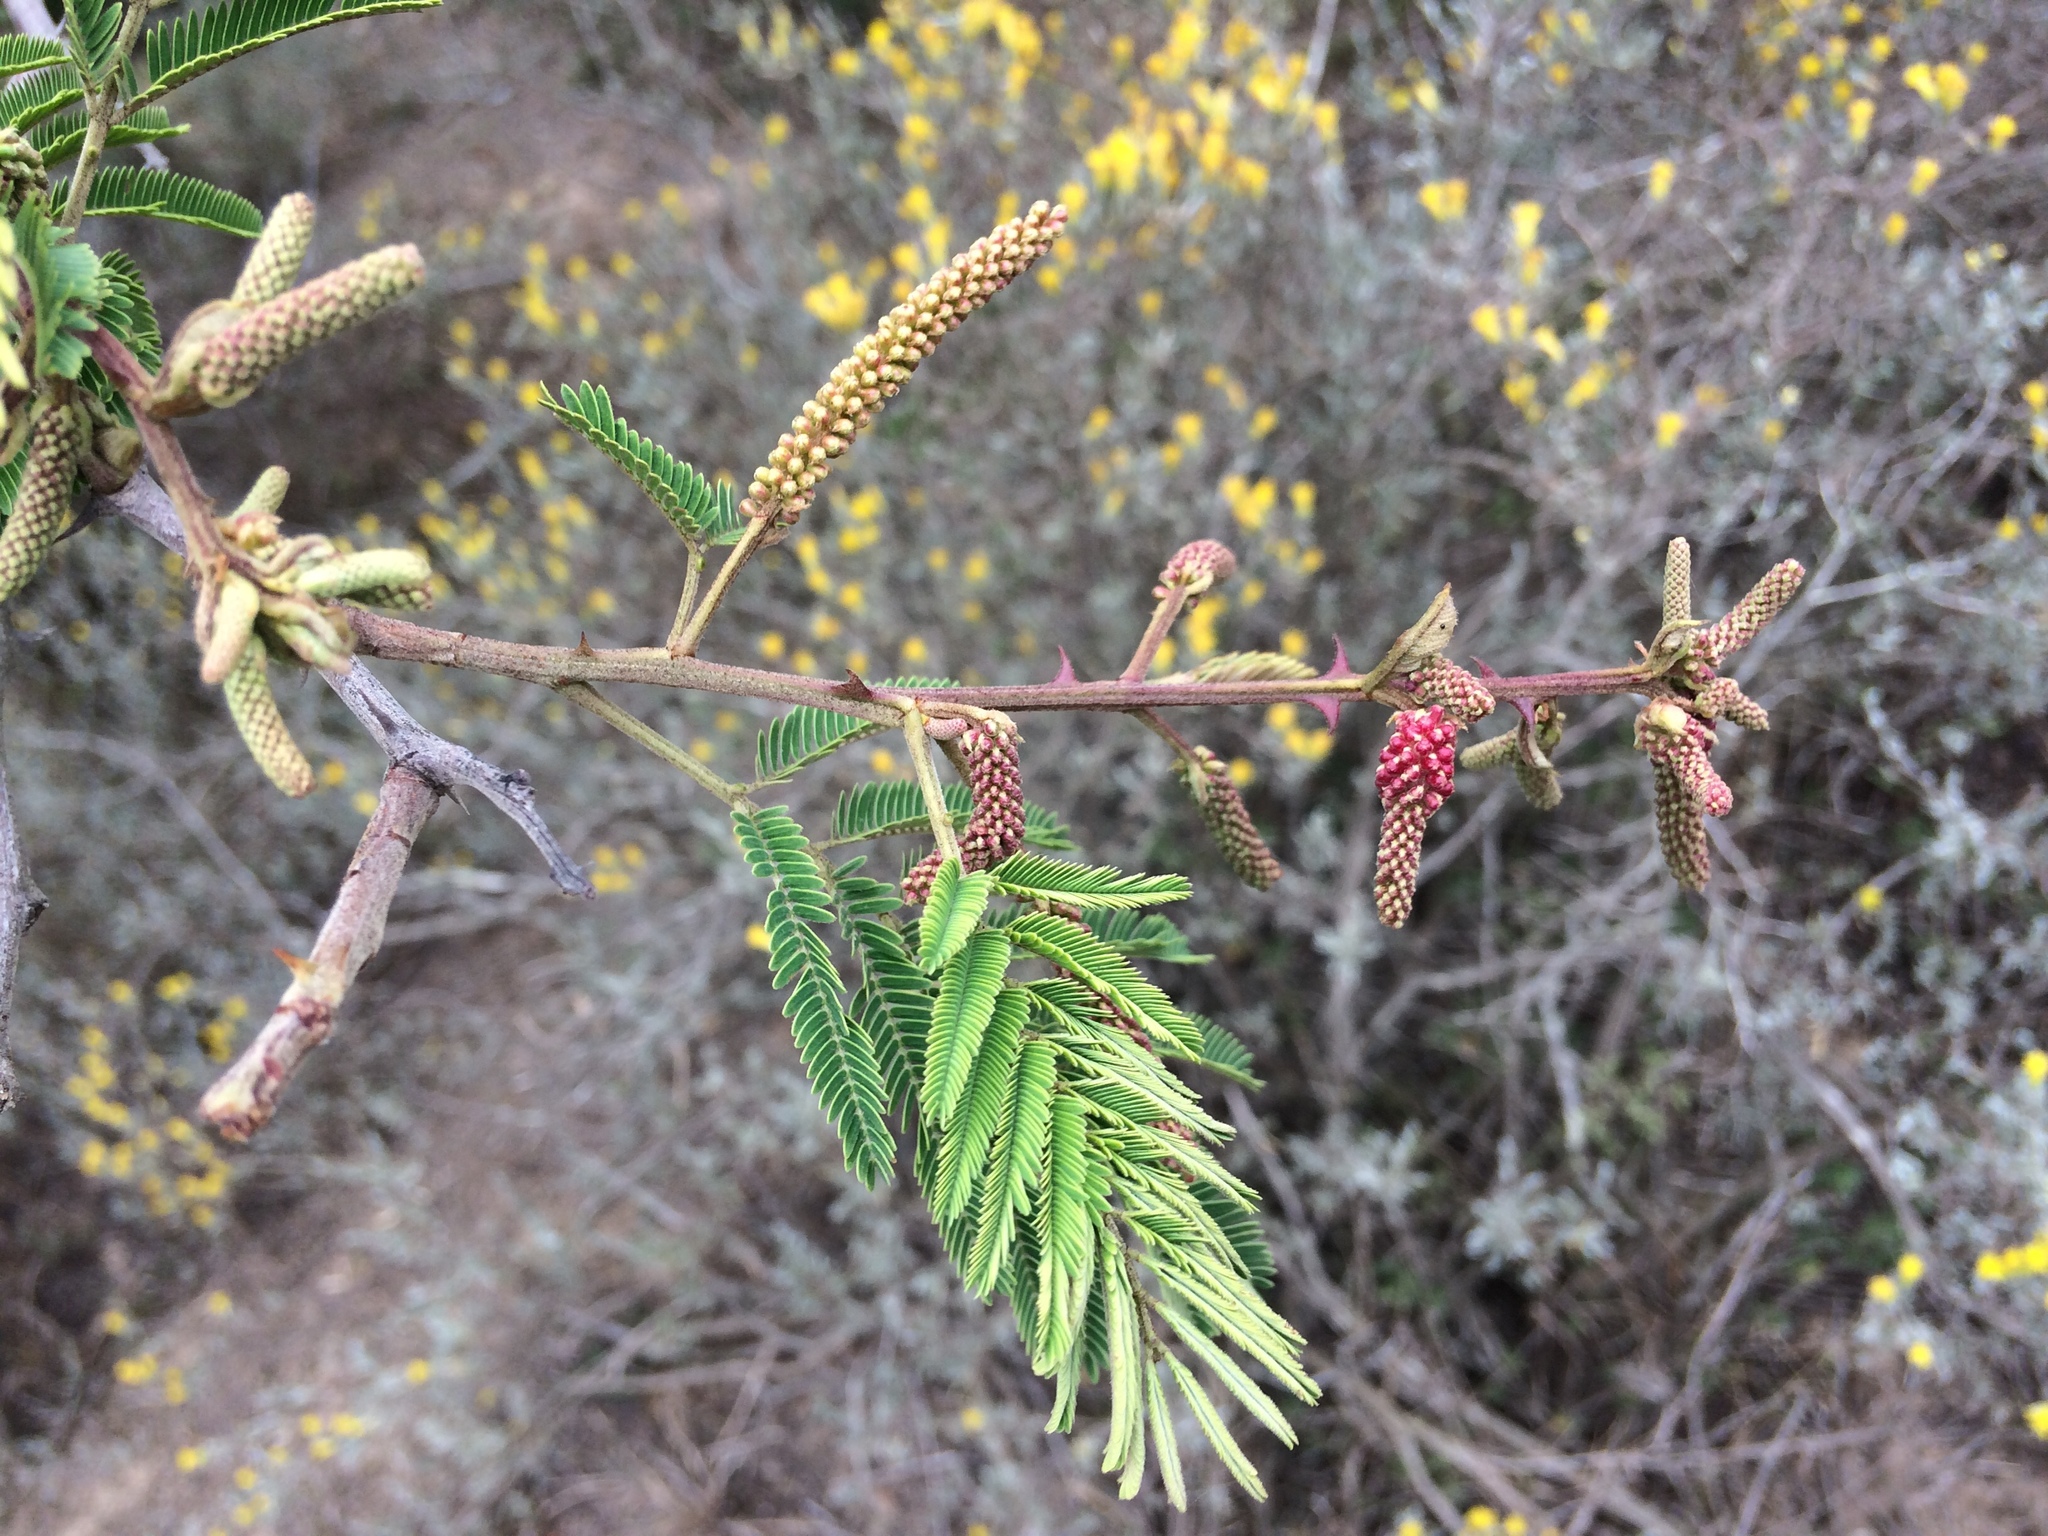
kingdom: Plantae
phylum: Tracheophyta
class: Magnoliopsida
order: Fabales
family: Fabaceae
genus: Senegalia
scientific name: Senegalia ataxacantha
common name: Flame acacia
